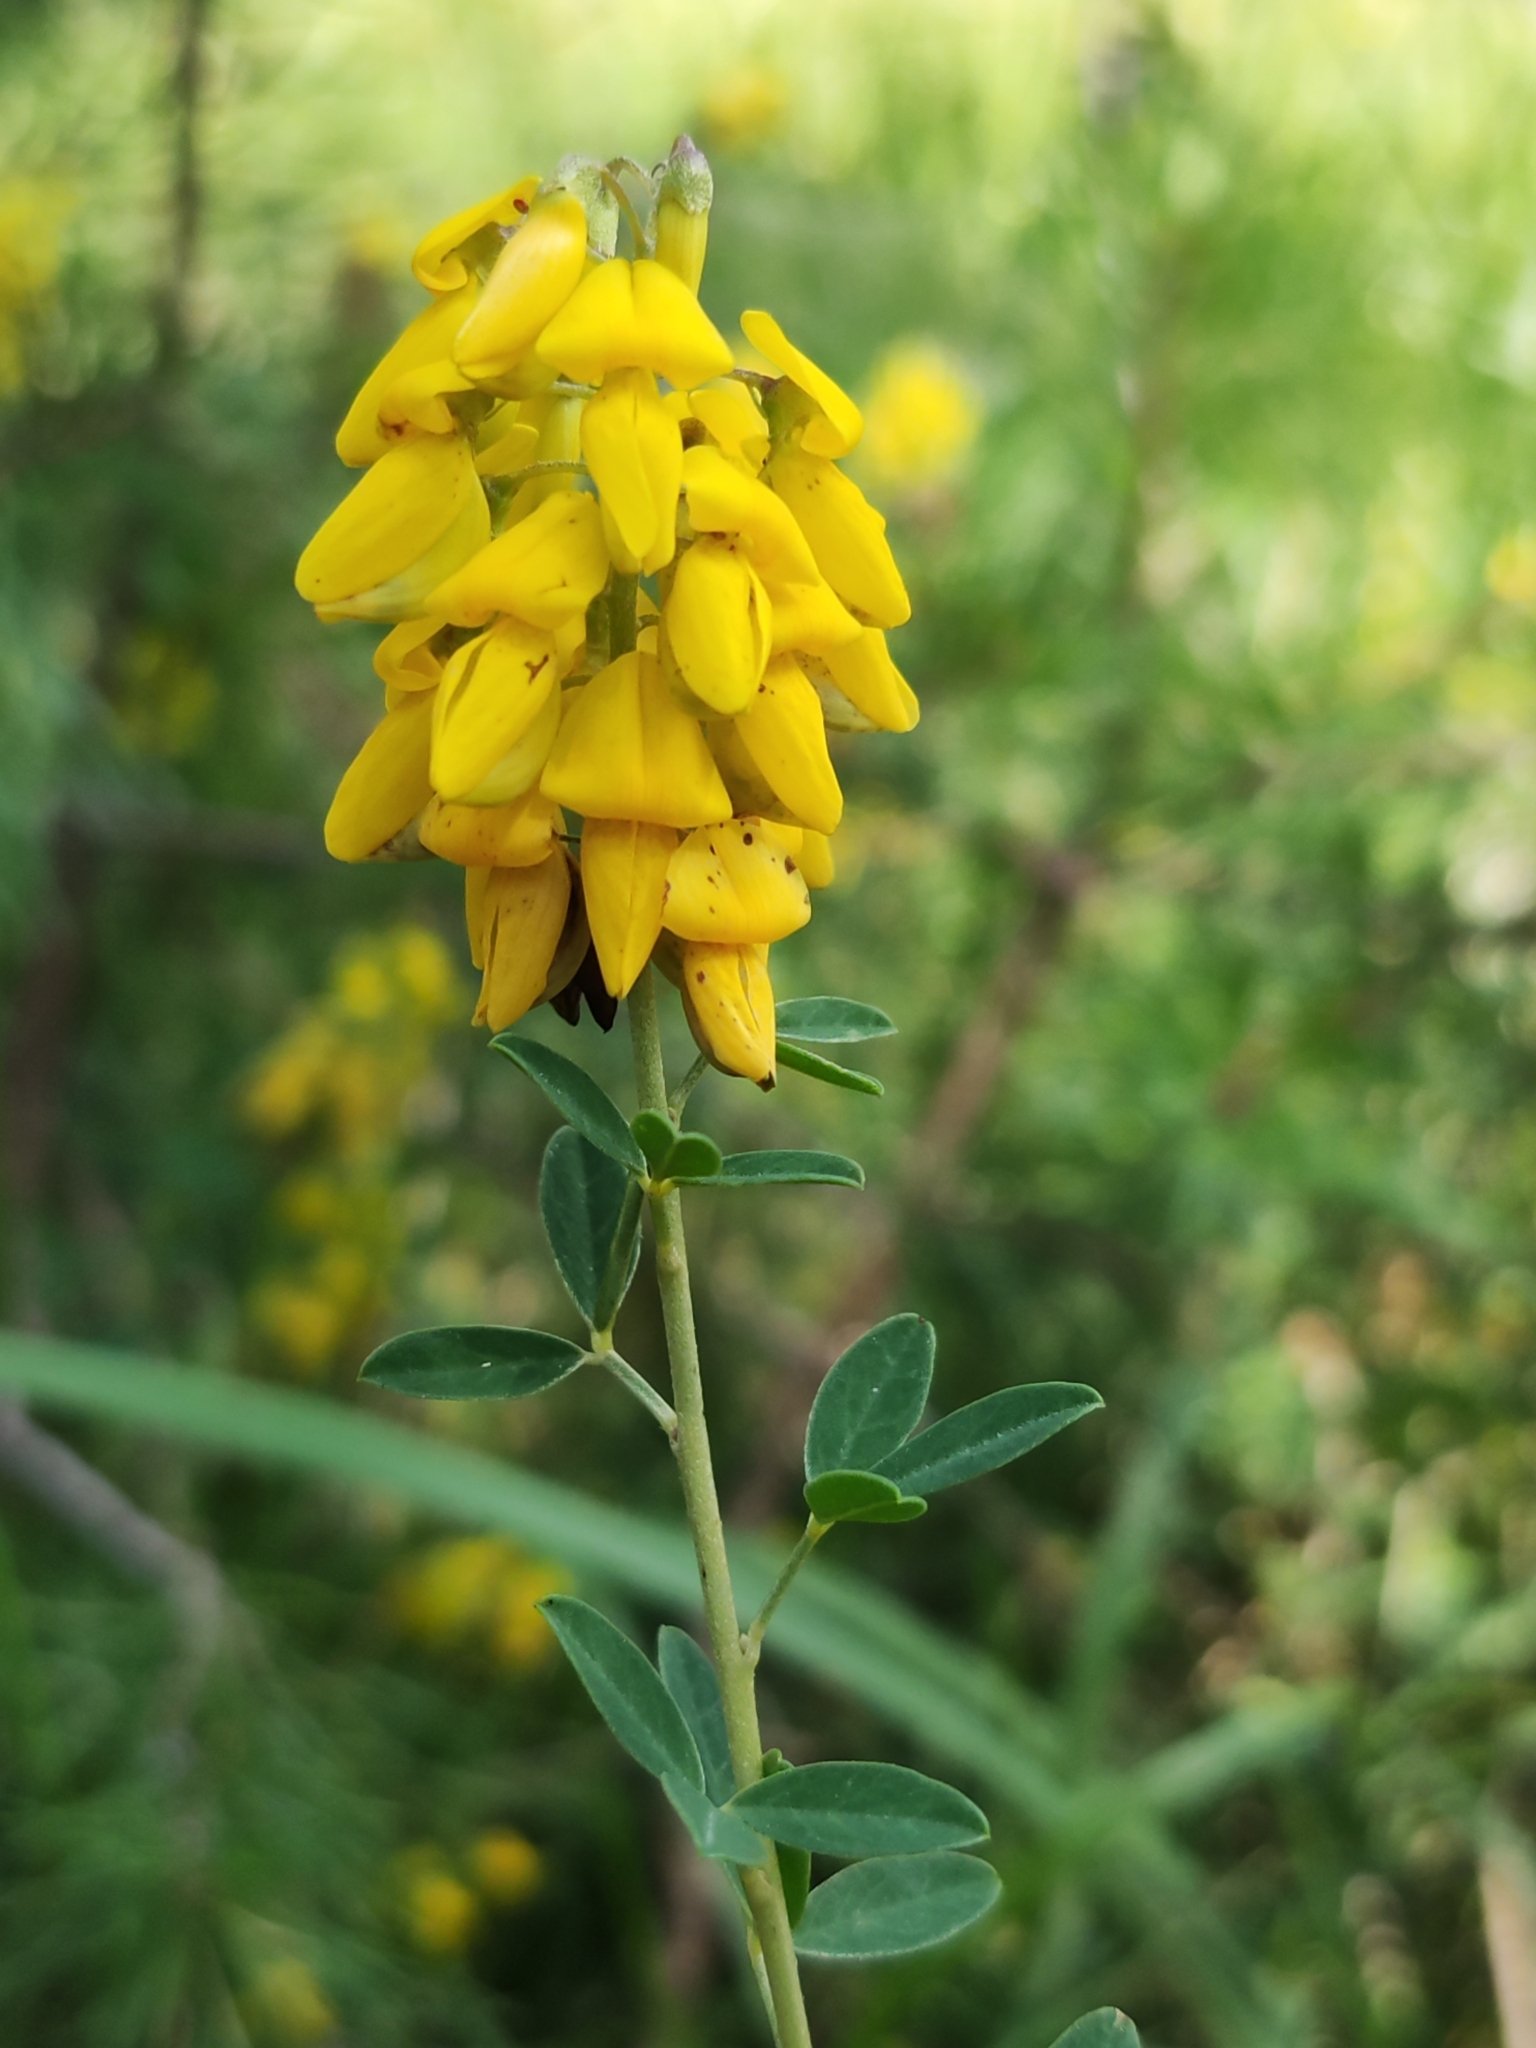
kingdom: Plantae
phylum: Tracheophyta
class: Magnoliopsida
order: Fabales
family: Fabaceae
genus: Cytisus
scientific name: Cytisus nigricans
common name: Black broom
